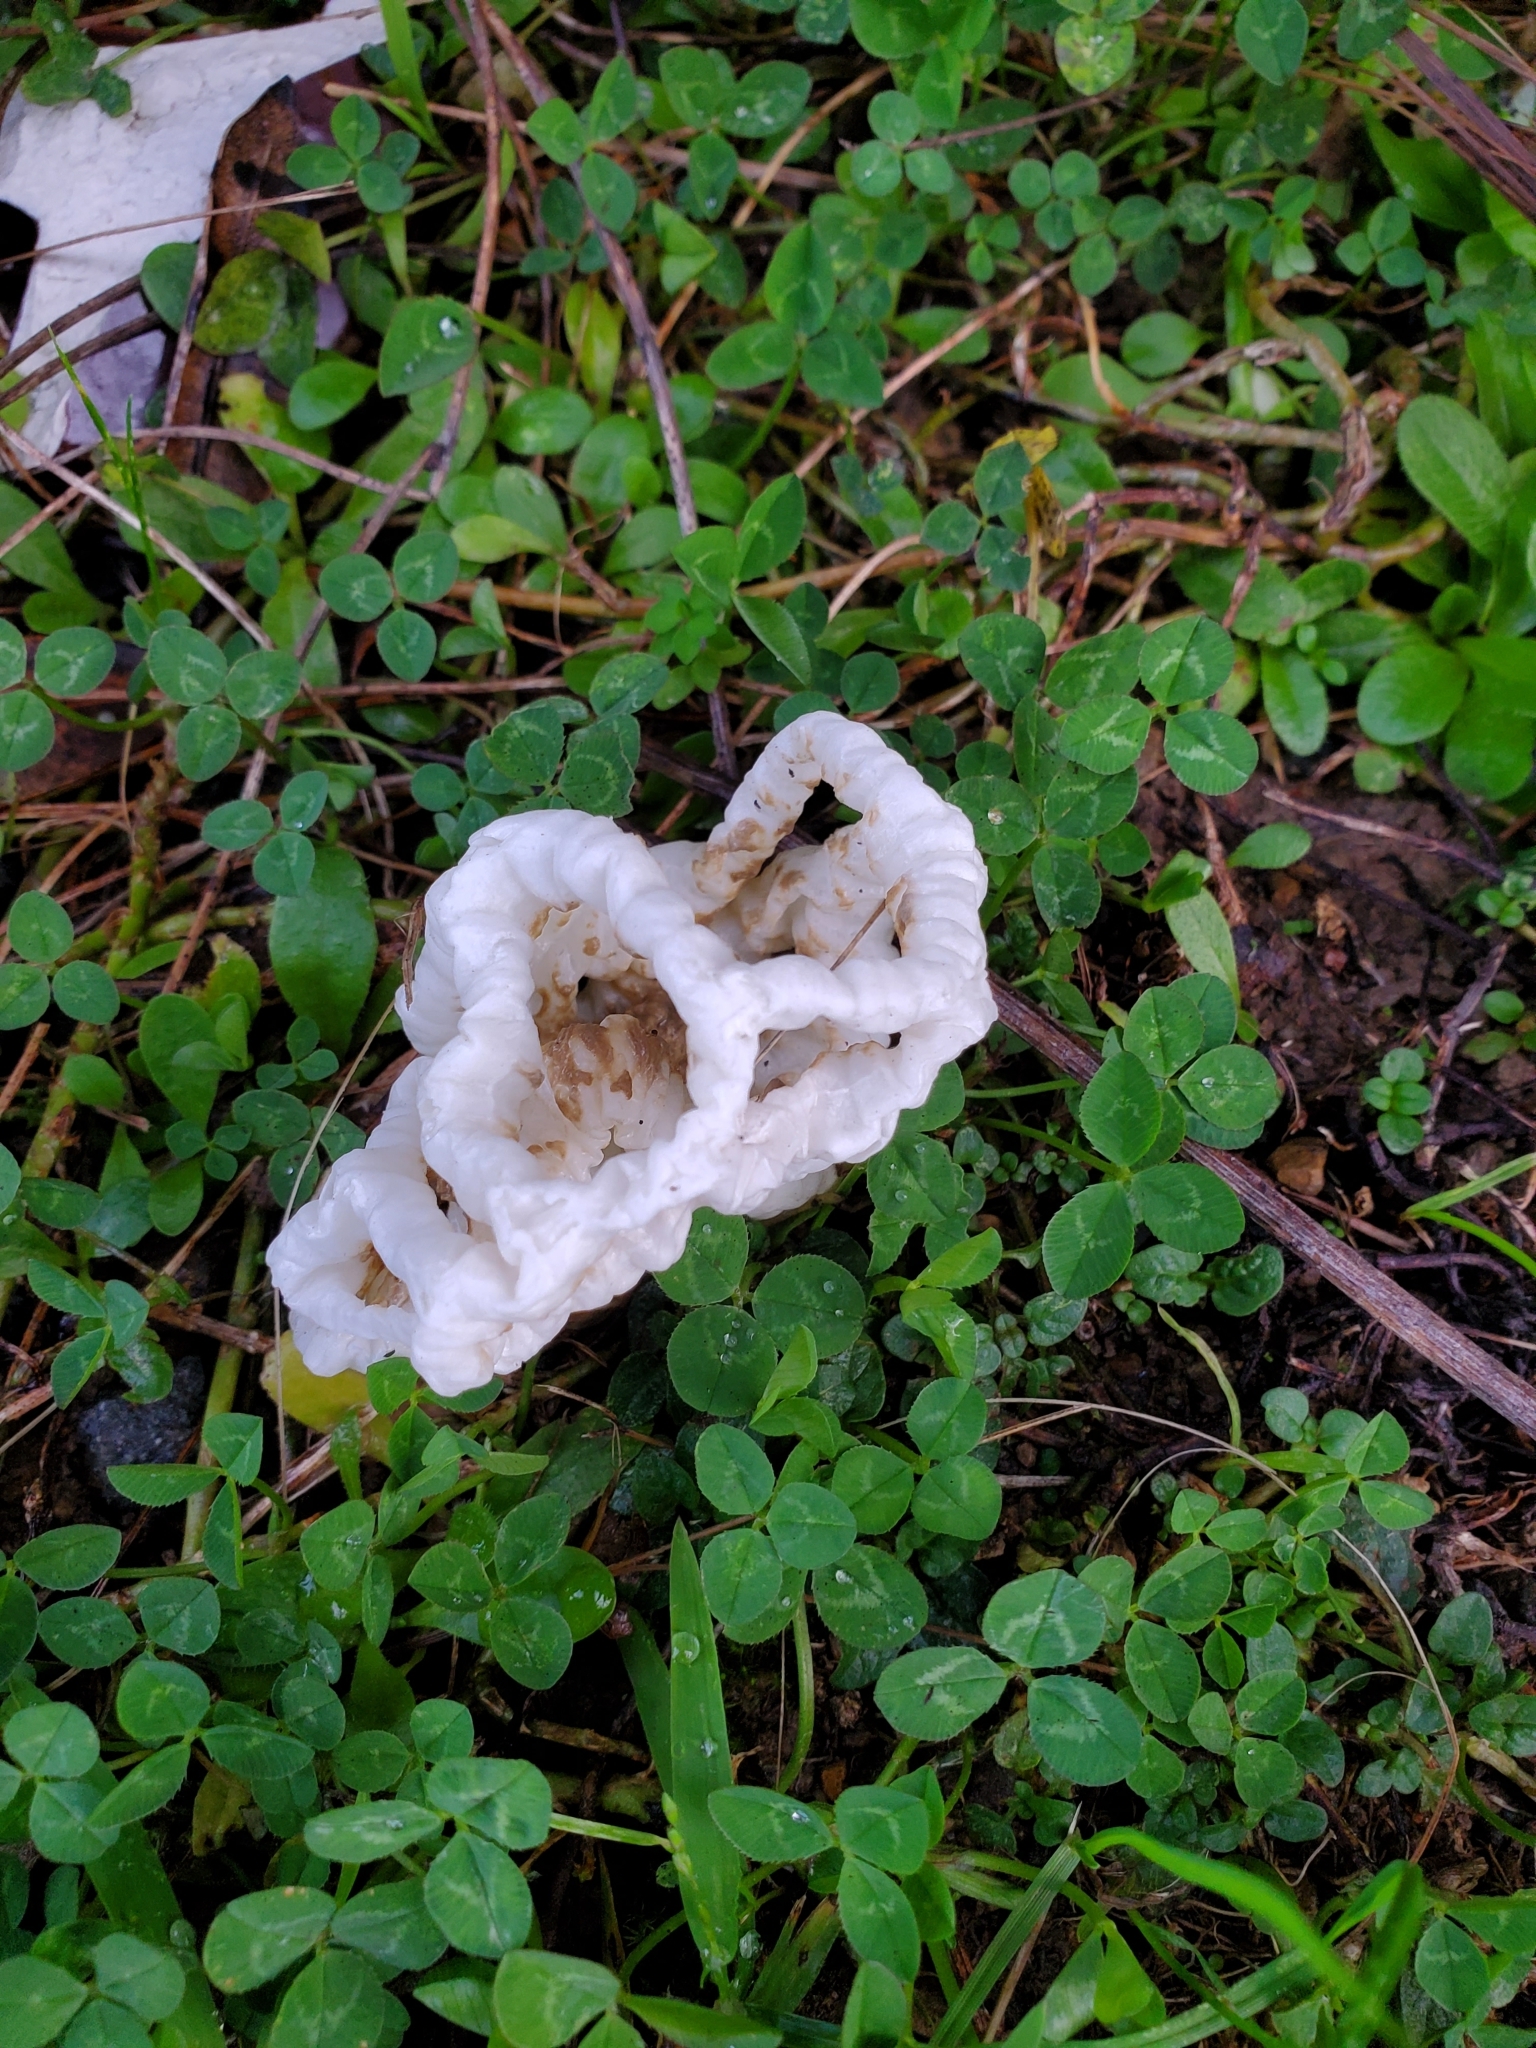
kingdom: Fungi
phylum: Basidiomycota
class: Agaricomycetes
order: Phallales
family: Phallaceae
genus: Ileodictyon
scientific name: Ileodictyon cibarium
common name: Basket fungus
